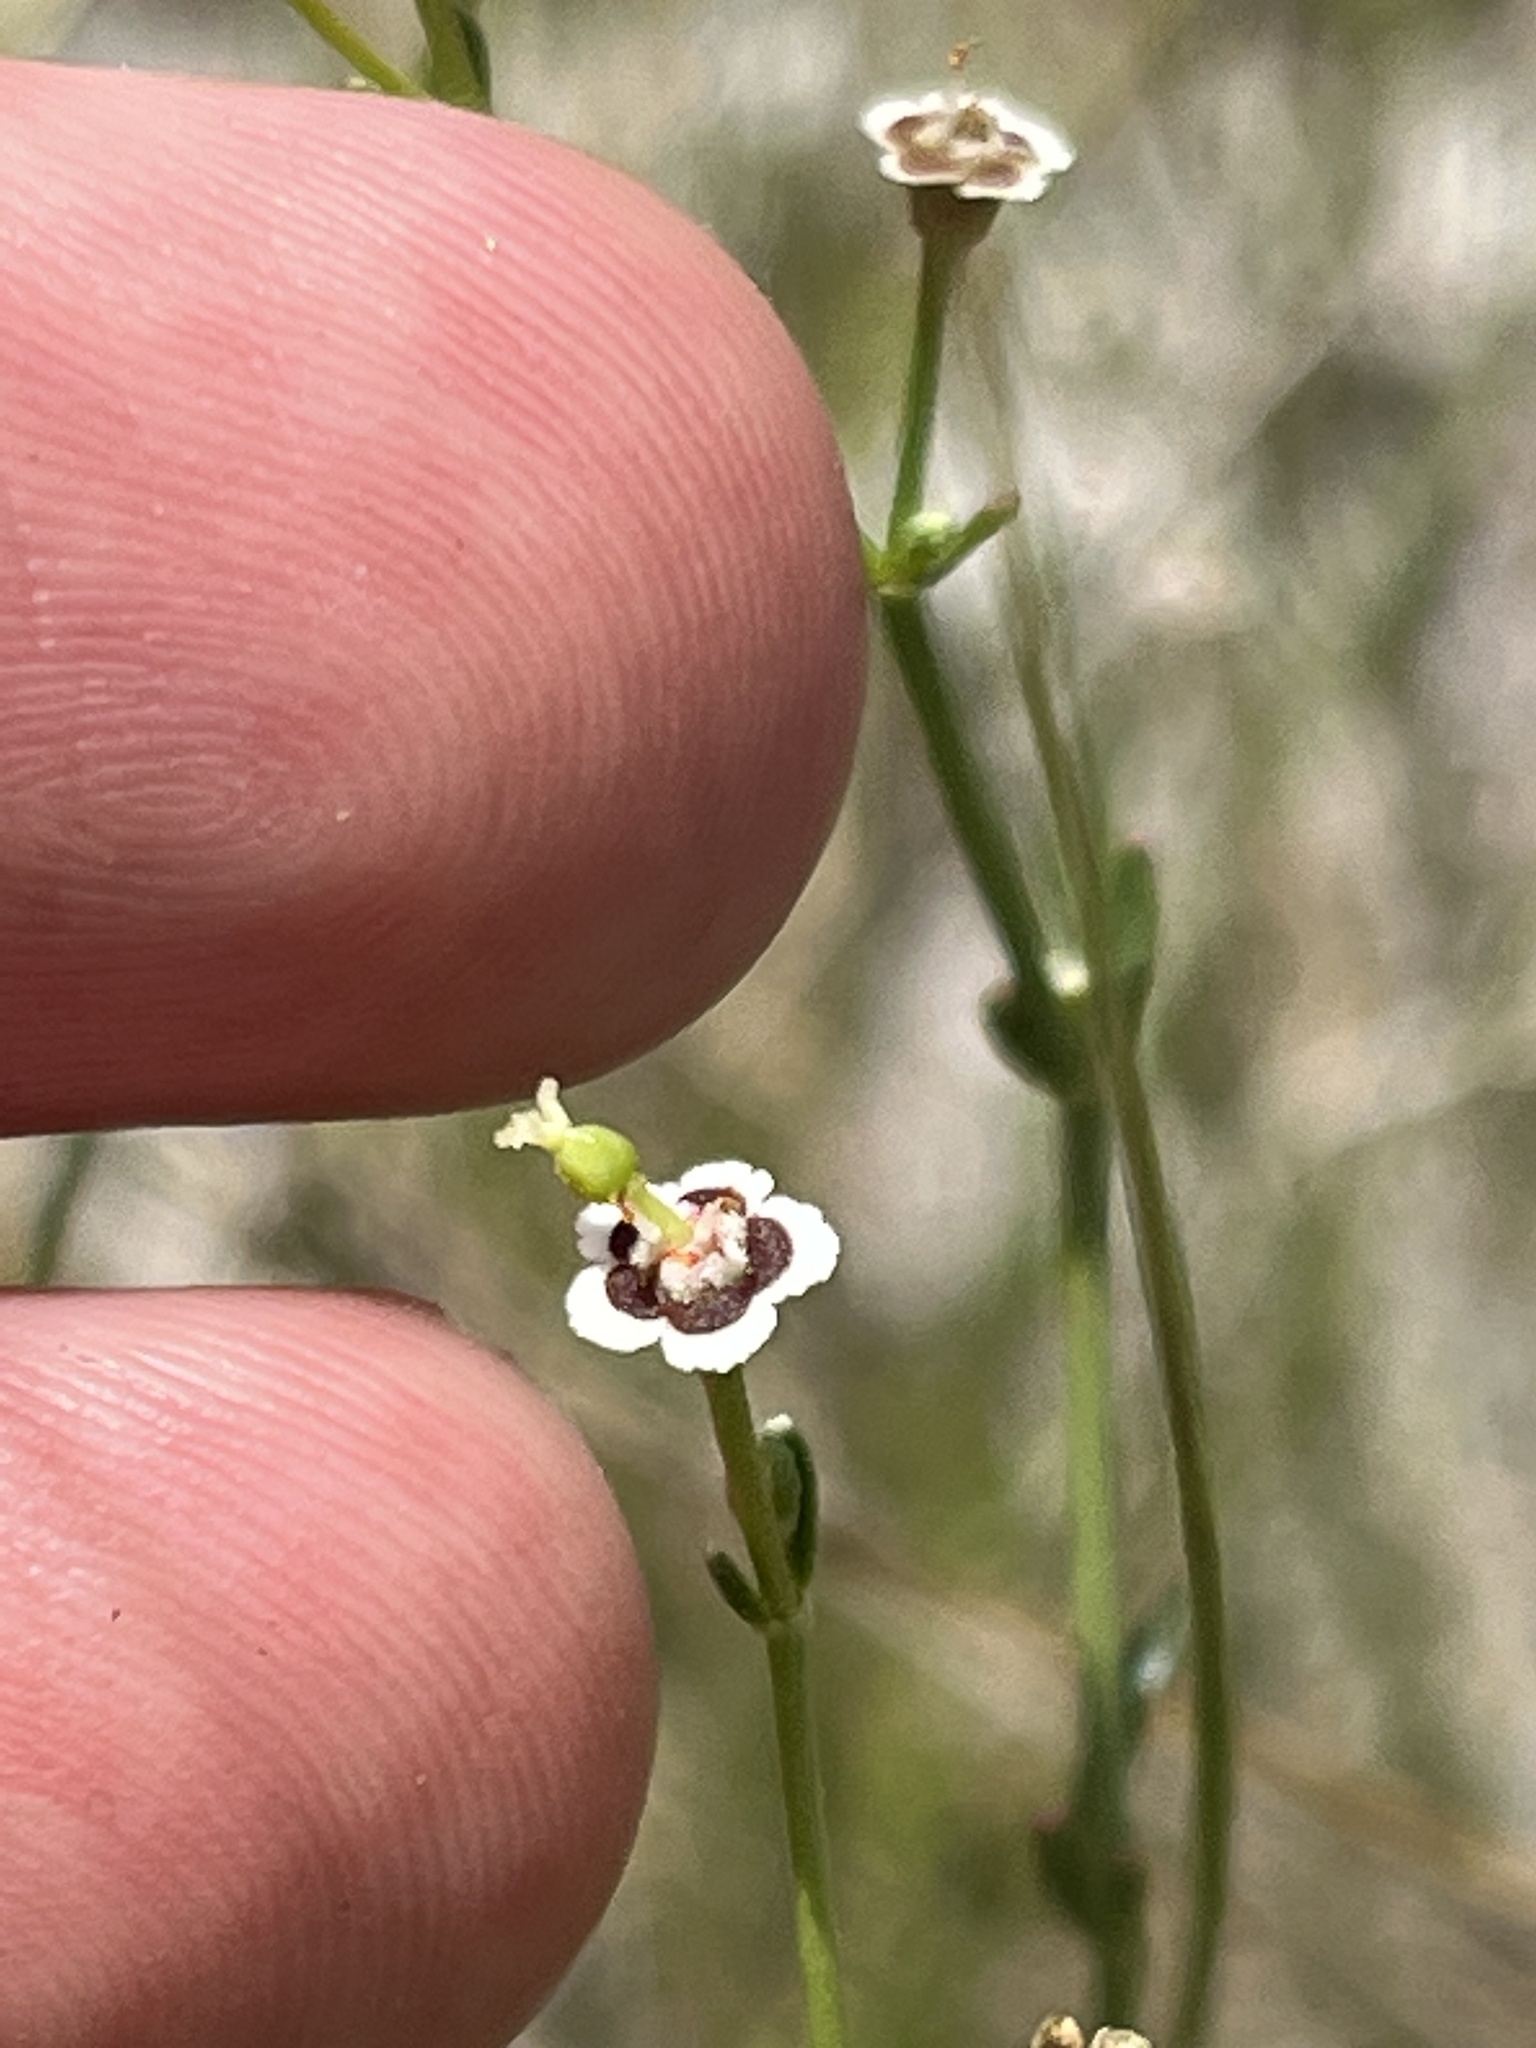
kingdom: Plantae
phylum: Tracheophyta
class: Magnoliopsida
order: Malpighiales
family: Euphorbiaceae
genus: Euphorbia
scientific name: Euphorbia polyphylla
